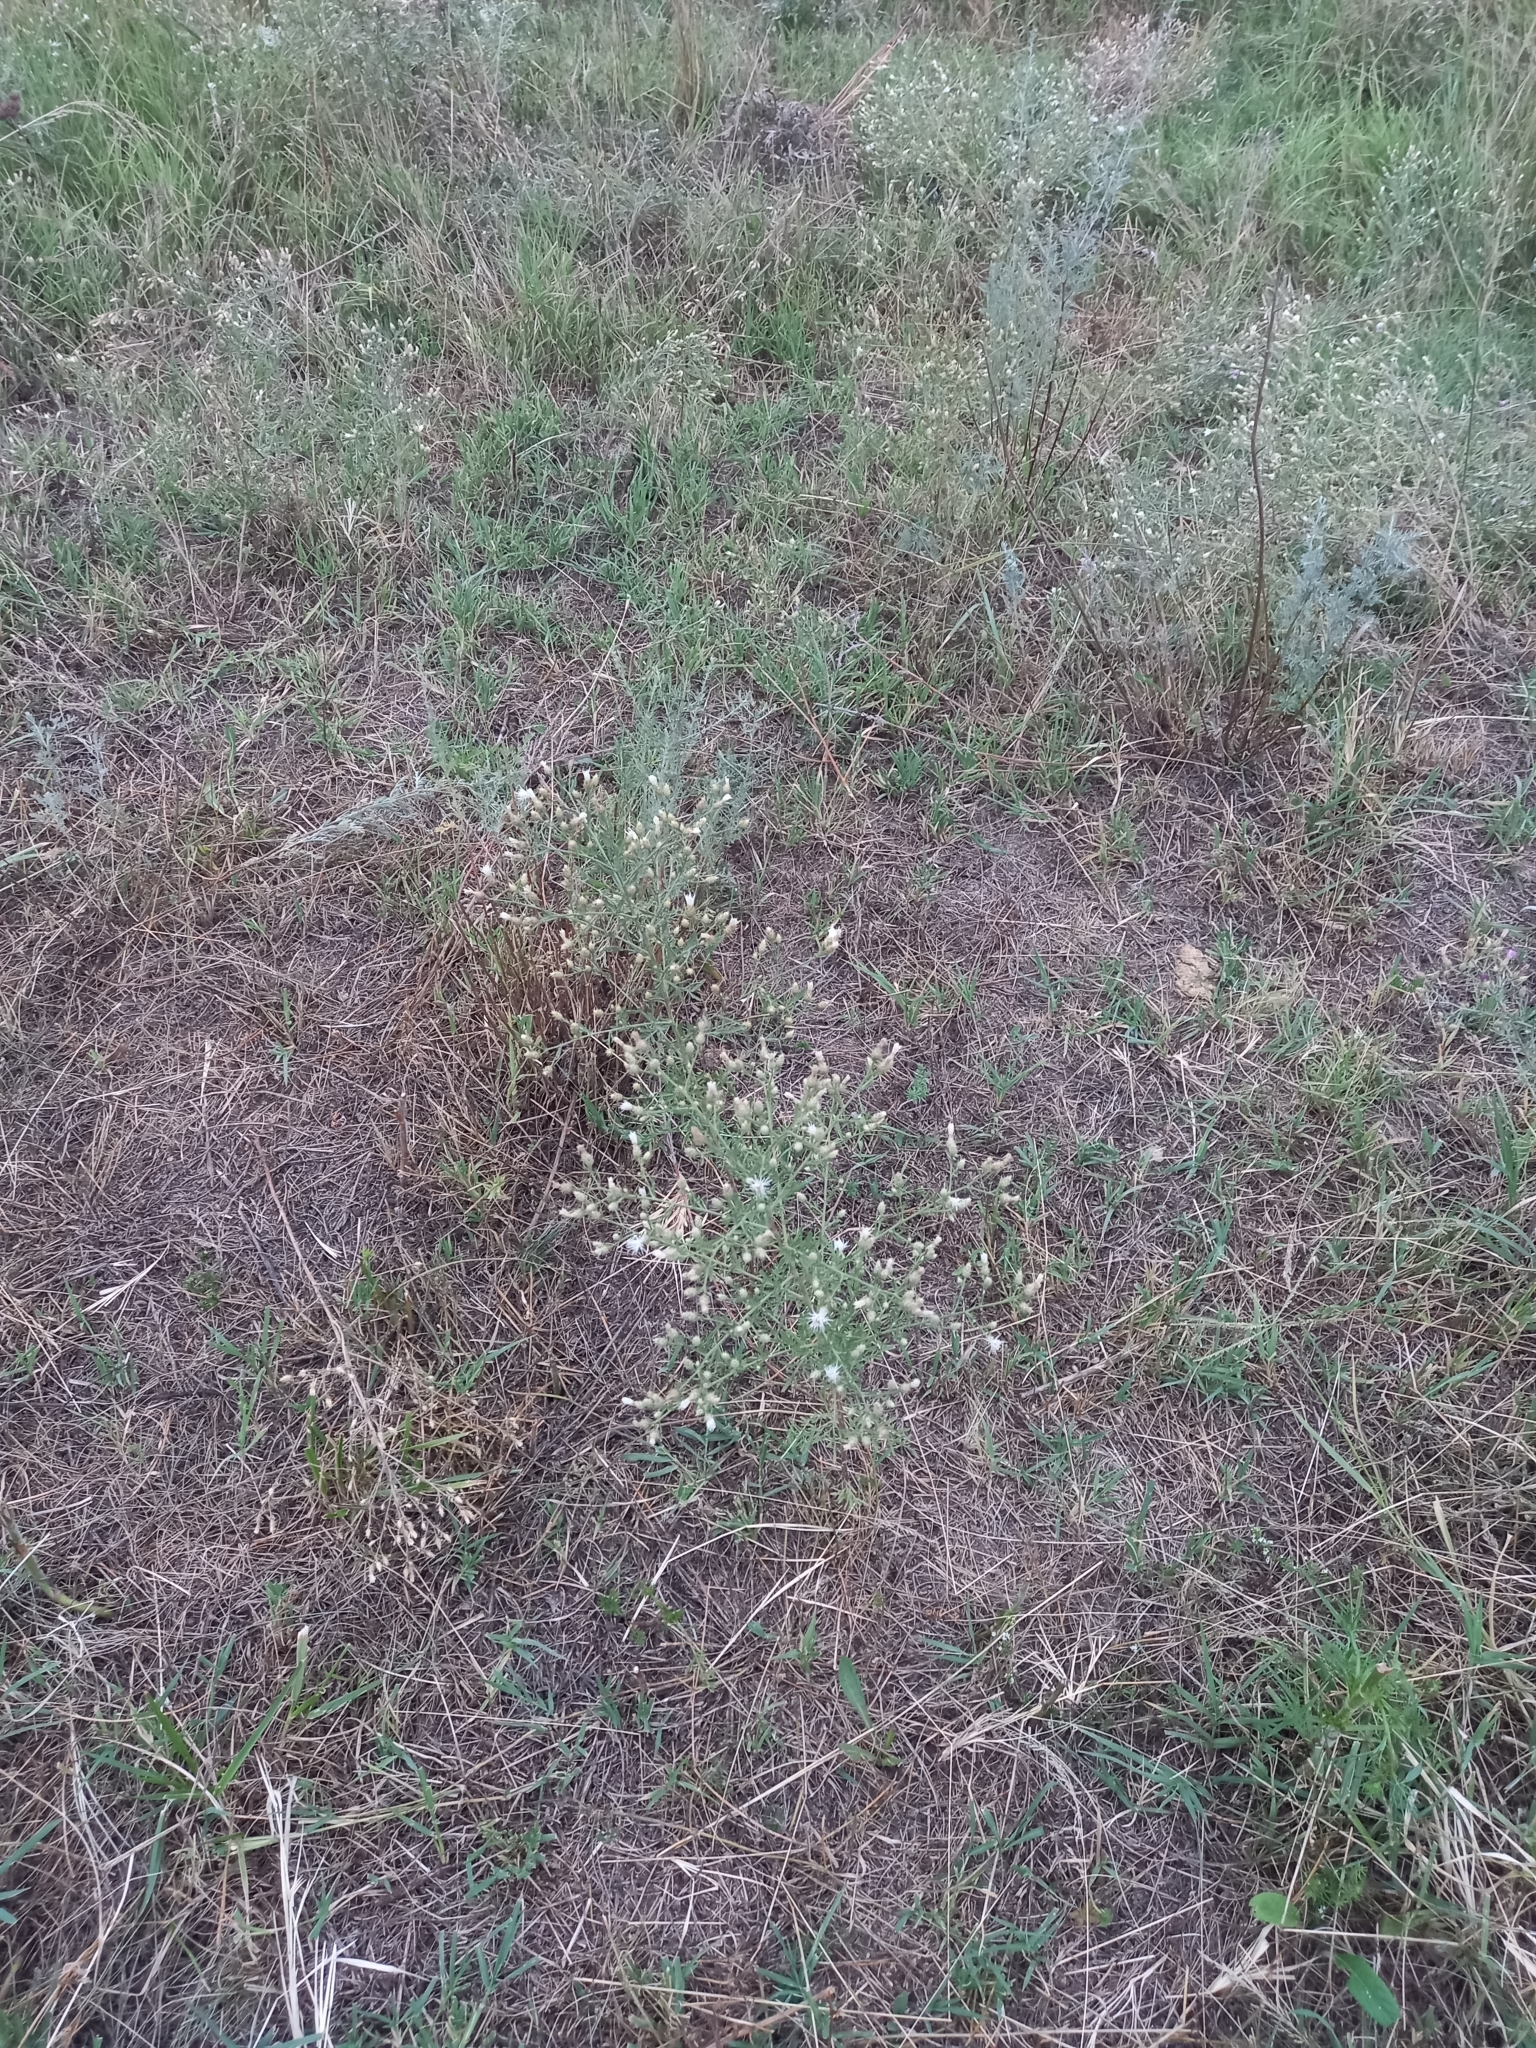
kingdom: Plantae
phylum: Tracheophyta
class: Magnoliopsida
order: Asterales
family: Asteraceae
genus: Centaurea
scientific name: Centaurea diffusa
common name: Diffuse knapweed
